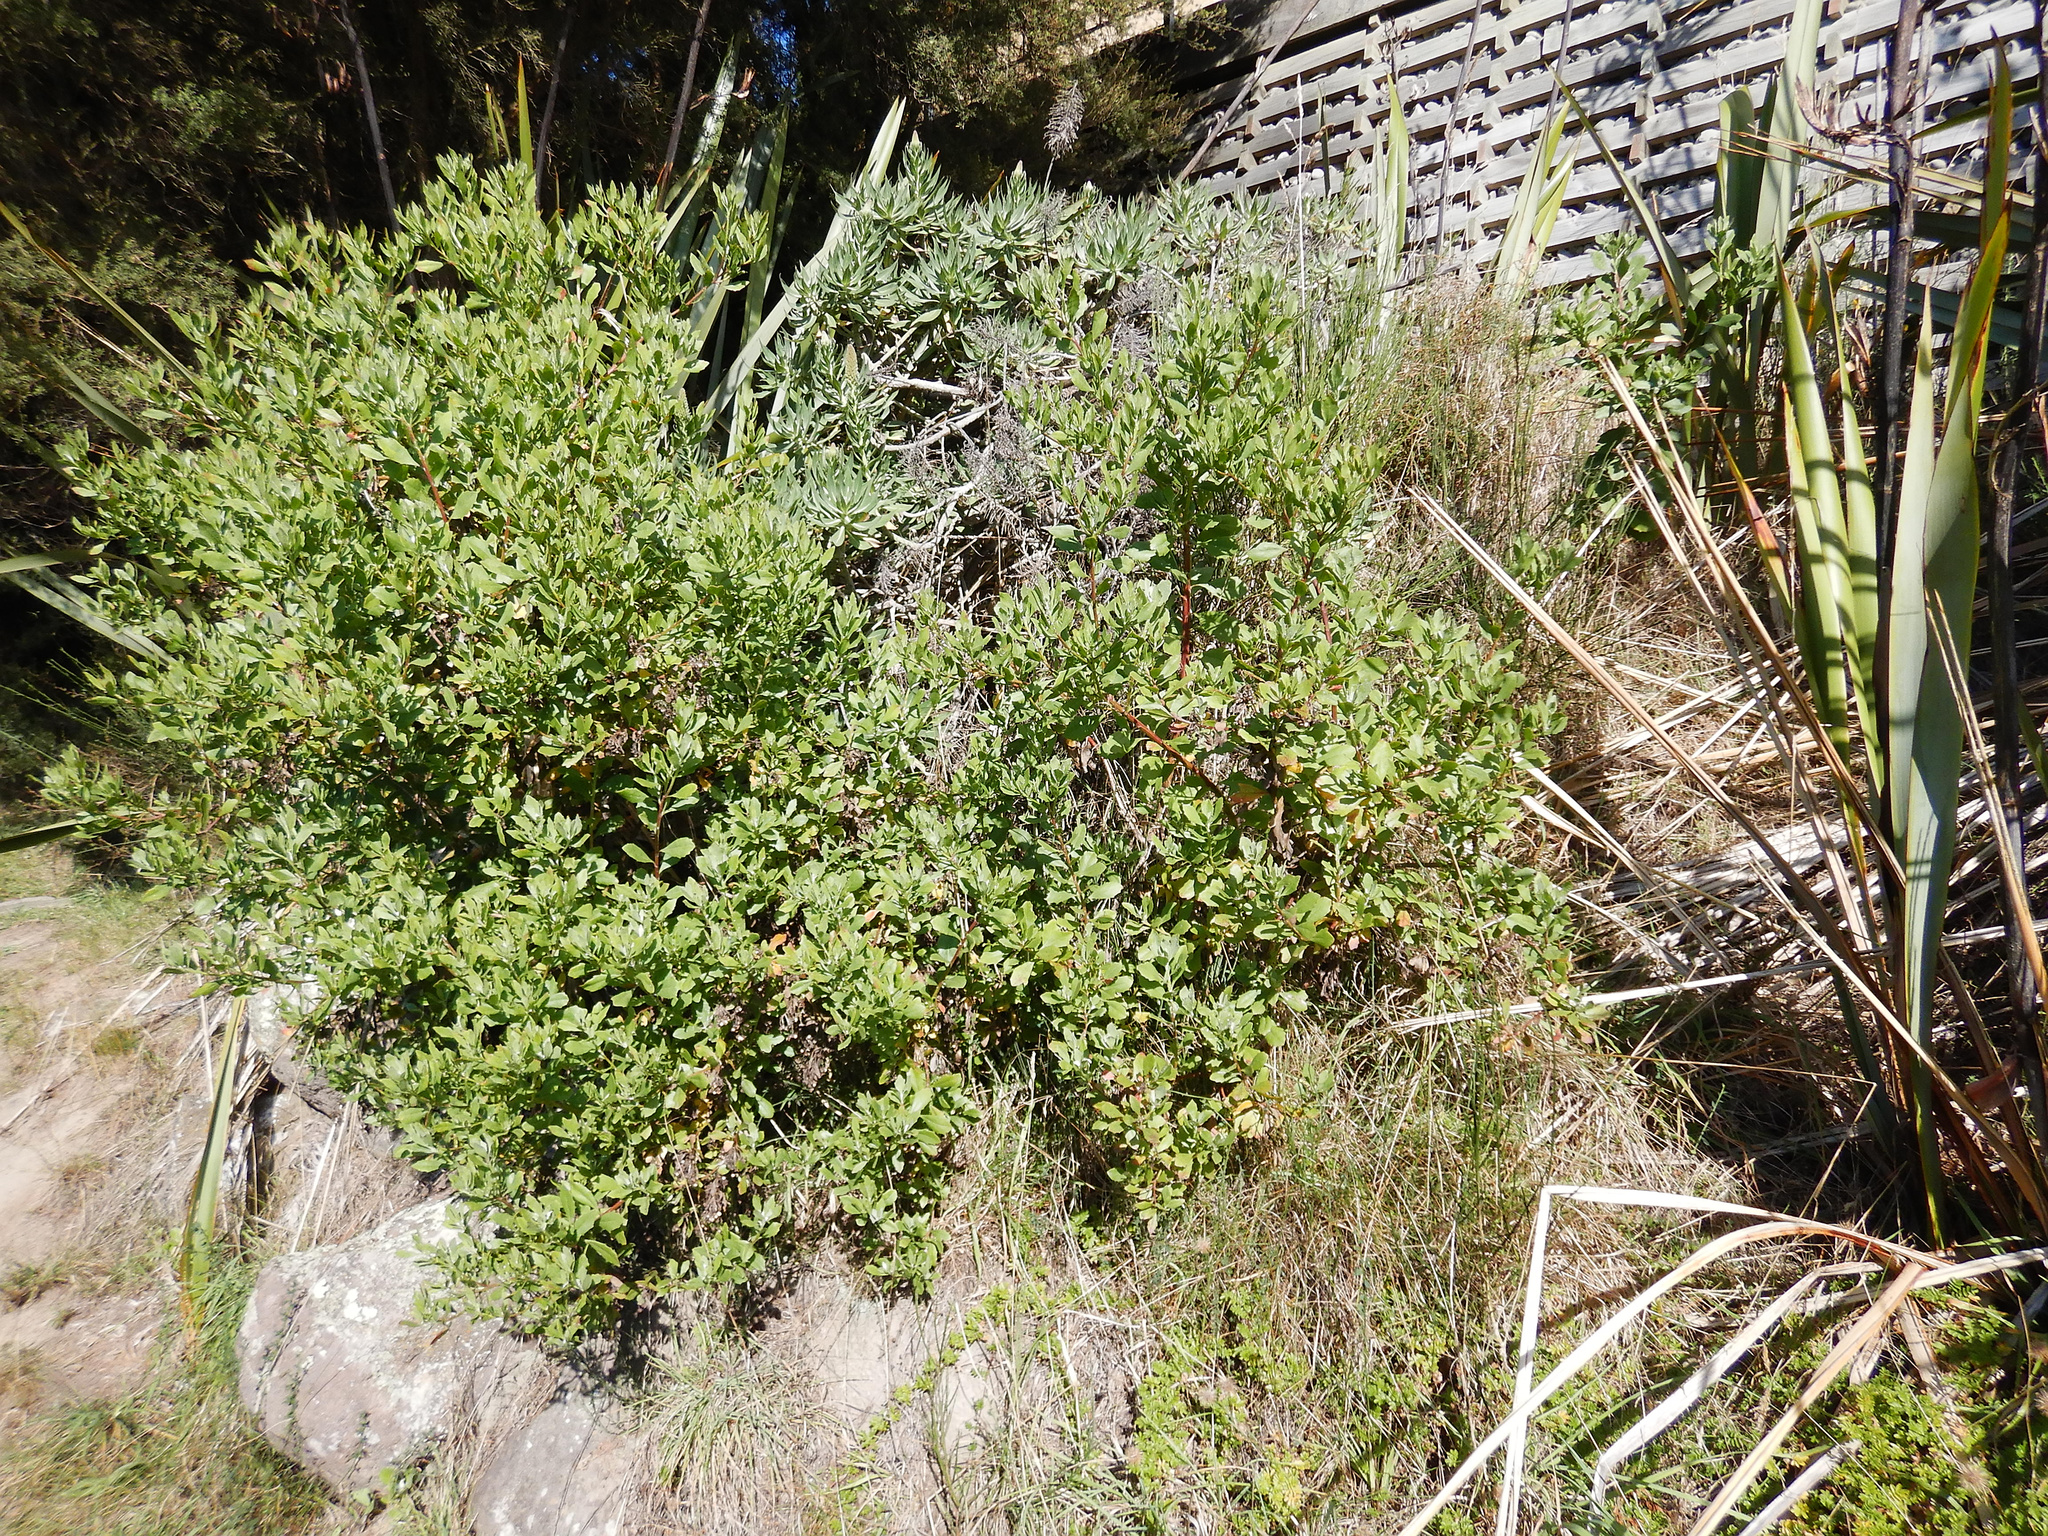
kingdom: Plantae
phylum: Tracheophyta
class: Magnoliopsida
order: Asterales
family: Asteraceae
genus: Osteospermum
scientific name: Osteospermum moniliferum
